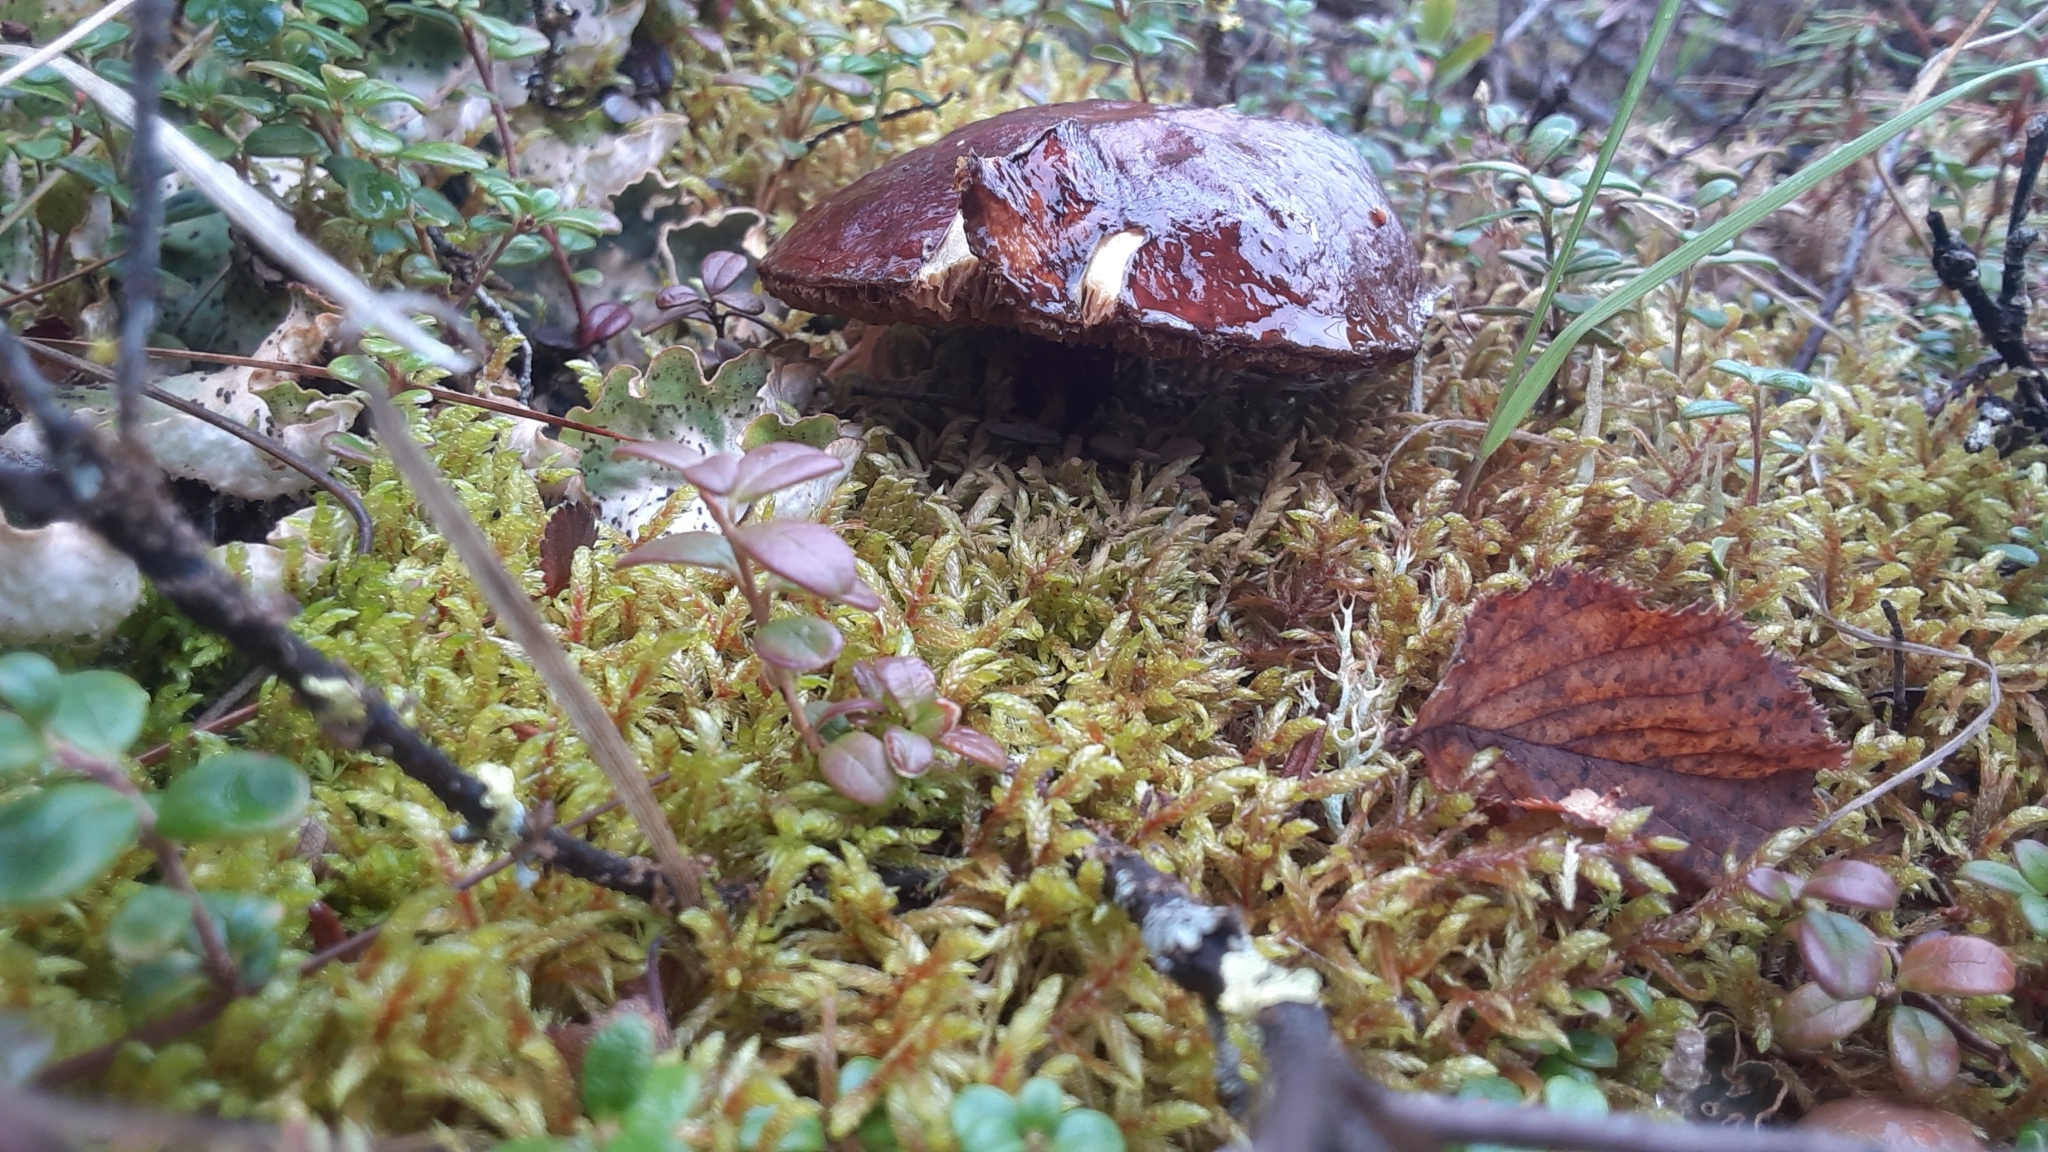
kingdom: Fungi
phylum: Basidiomycota
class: Agaricomycetes
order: Boletales
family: Suillaceae
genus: Boletinus
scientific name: Boletinus glandulosus
